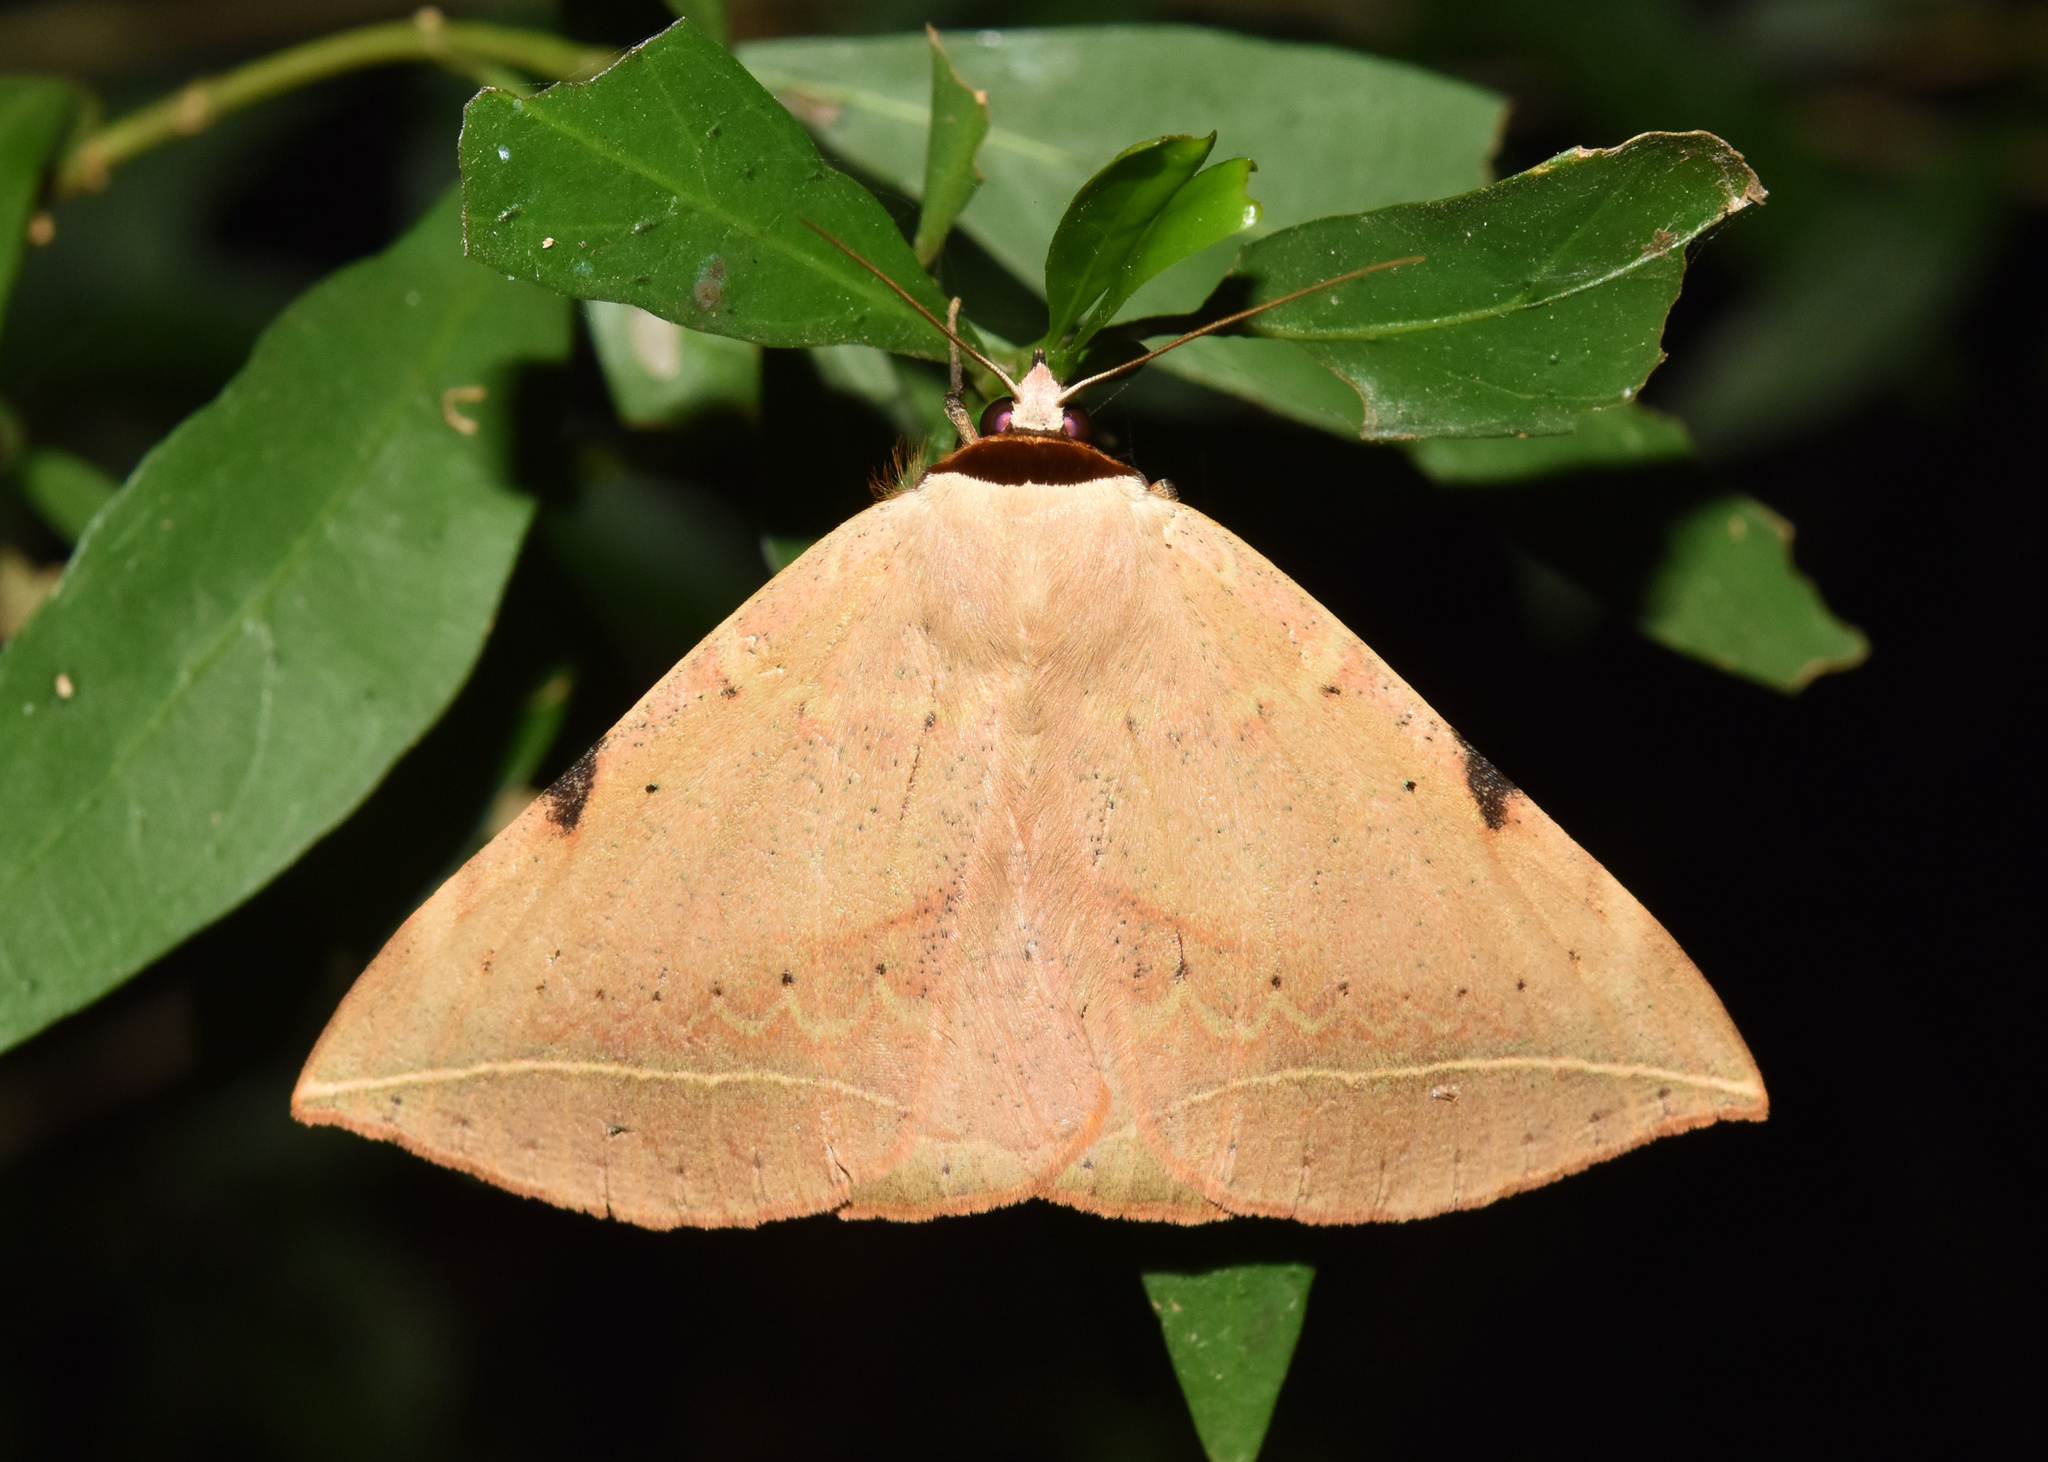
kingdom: Animalia
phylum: Arthropoda
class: Insecta
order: Lepidoptera
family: Erebidae
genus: Hypopyra
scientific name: Hypopyra capensis
